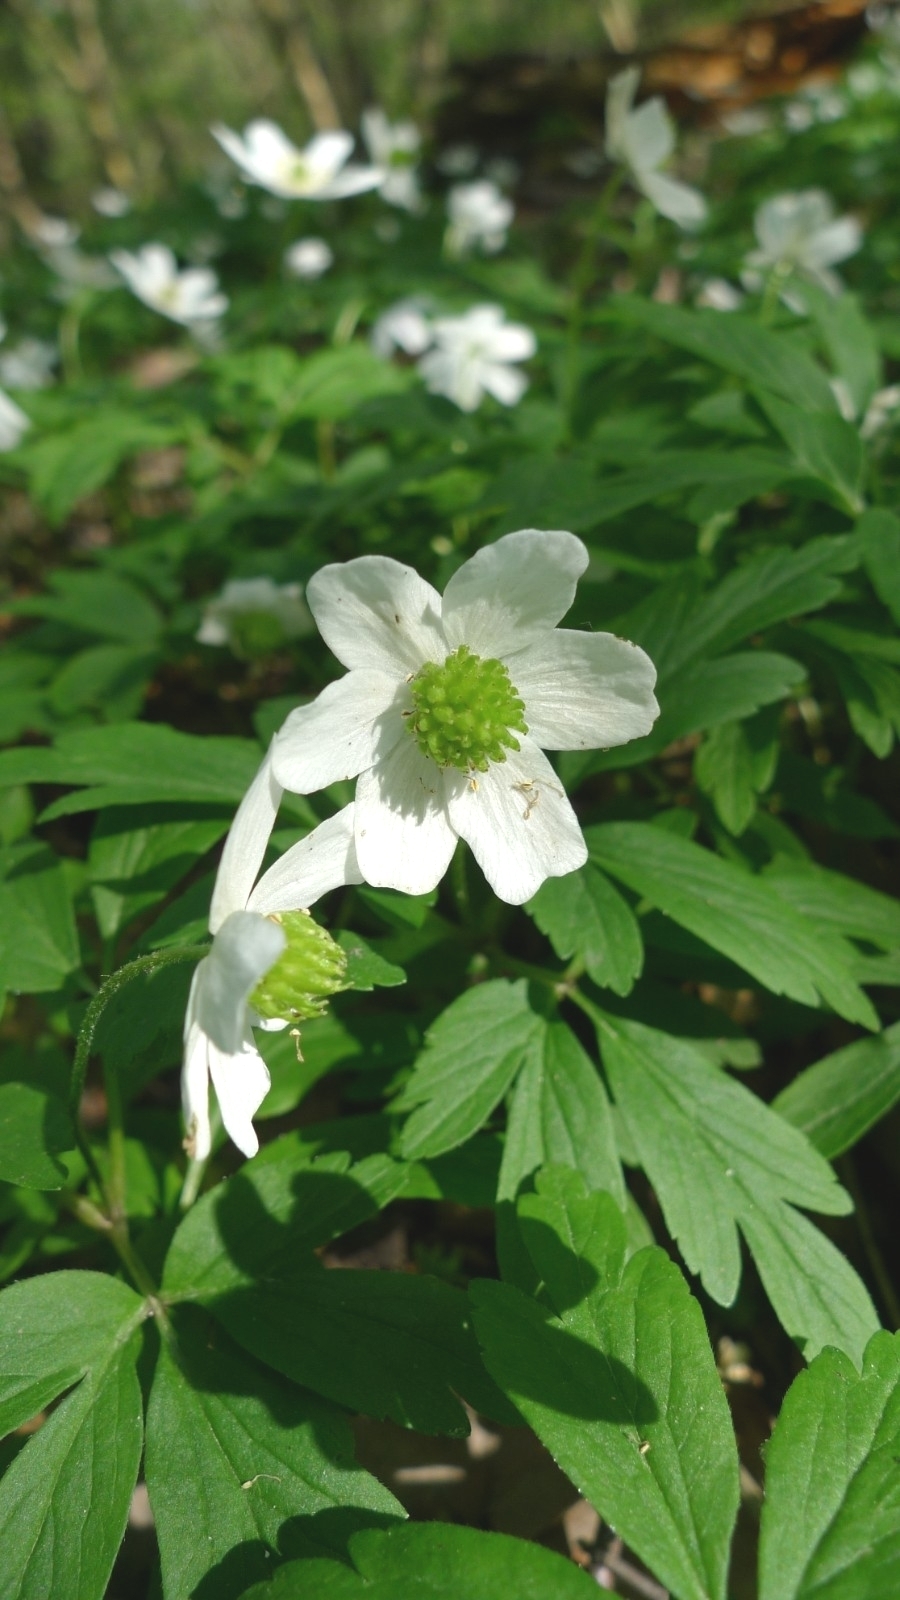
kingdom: Plantae
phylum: Tracheophyta
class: Magnoliopsida
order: Ranunculales
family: Ranunculaceae
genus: Anemone
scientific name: Anemone nemorosa
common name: Wood anemone
